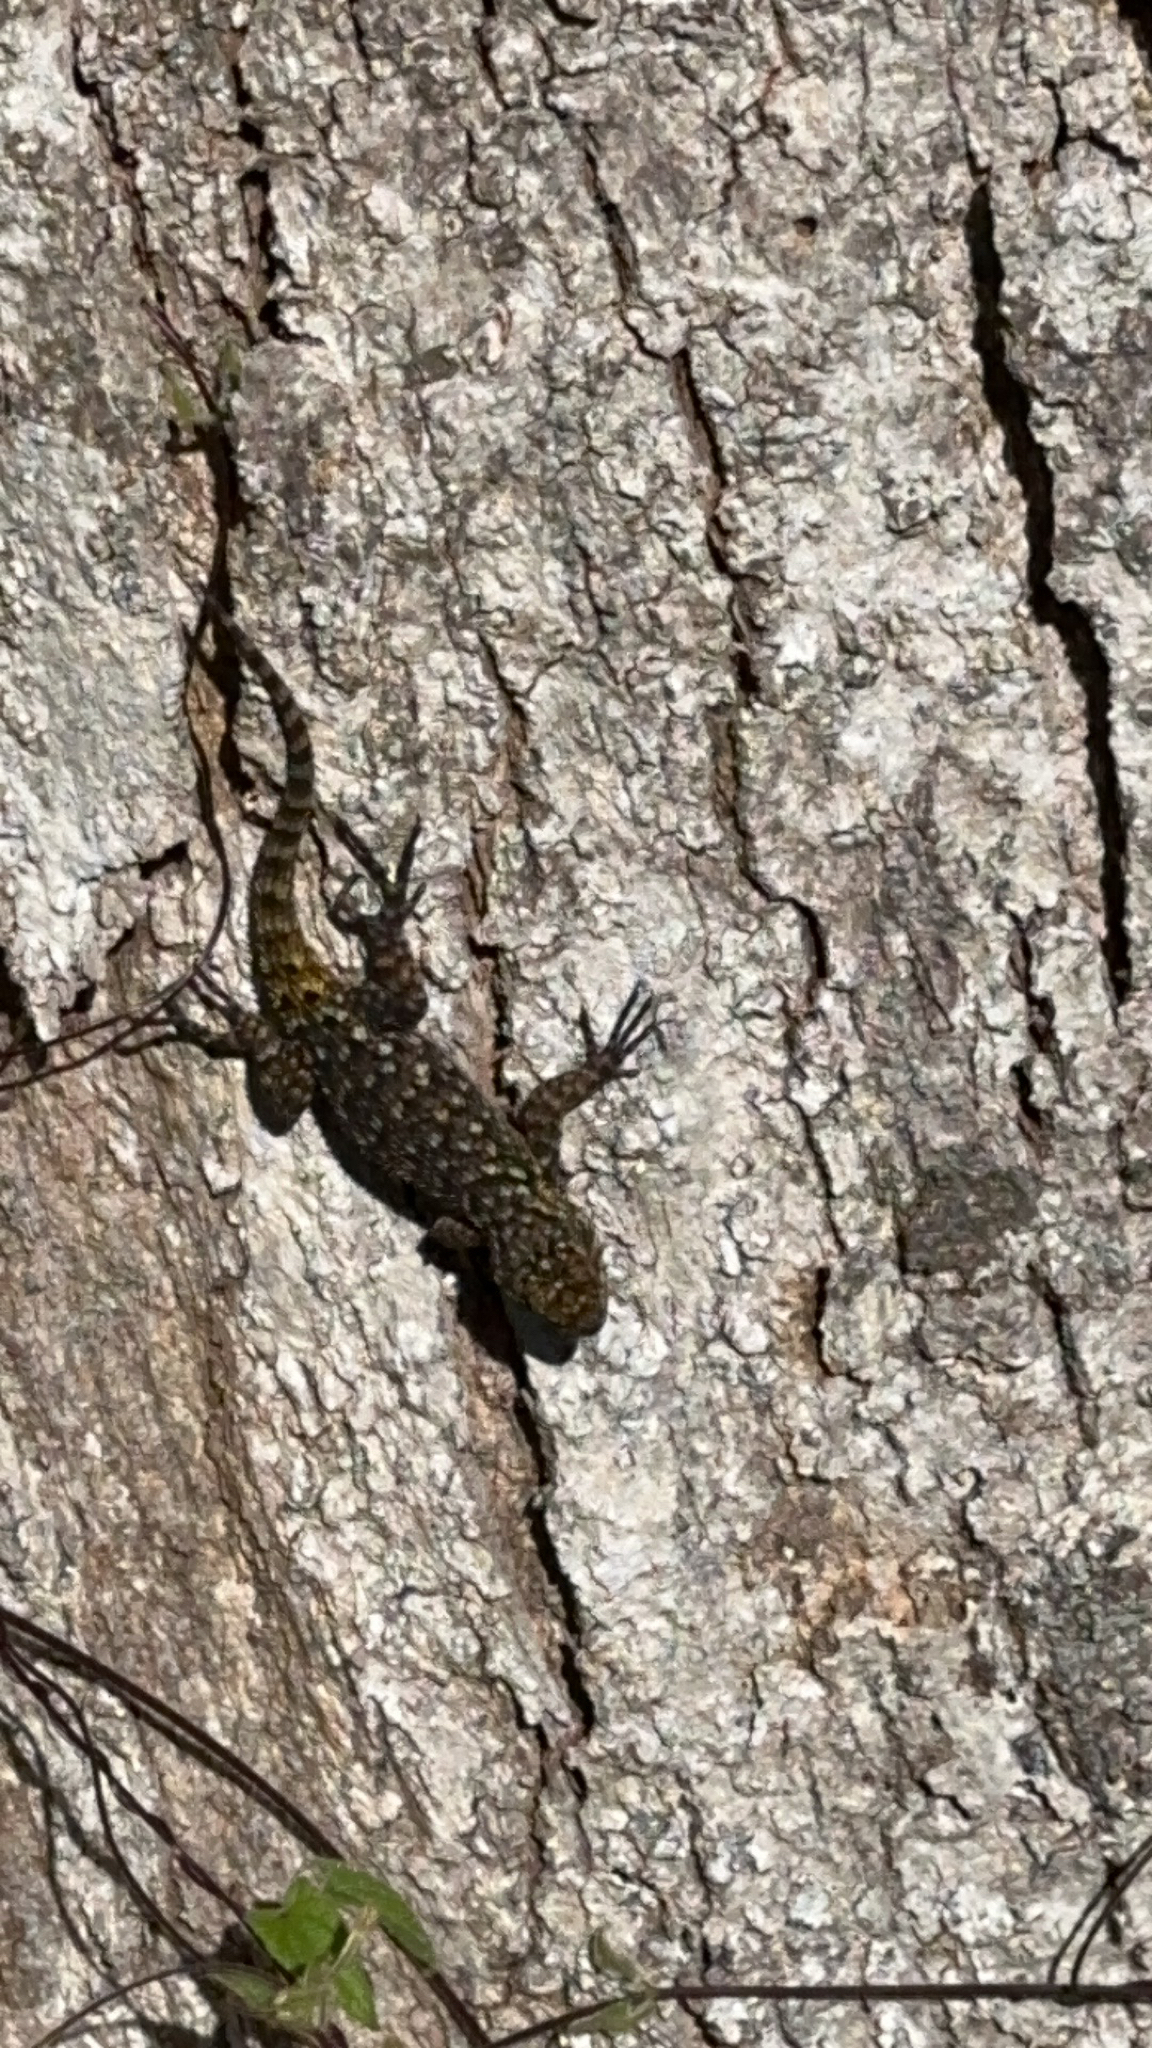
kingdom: Animalia
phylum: Chordata
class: Squamata
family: Phrynosomatidae
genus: Sceloporus
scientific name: Sceloporus malachiticus
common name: Green spiny lizard
